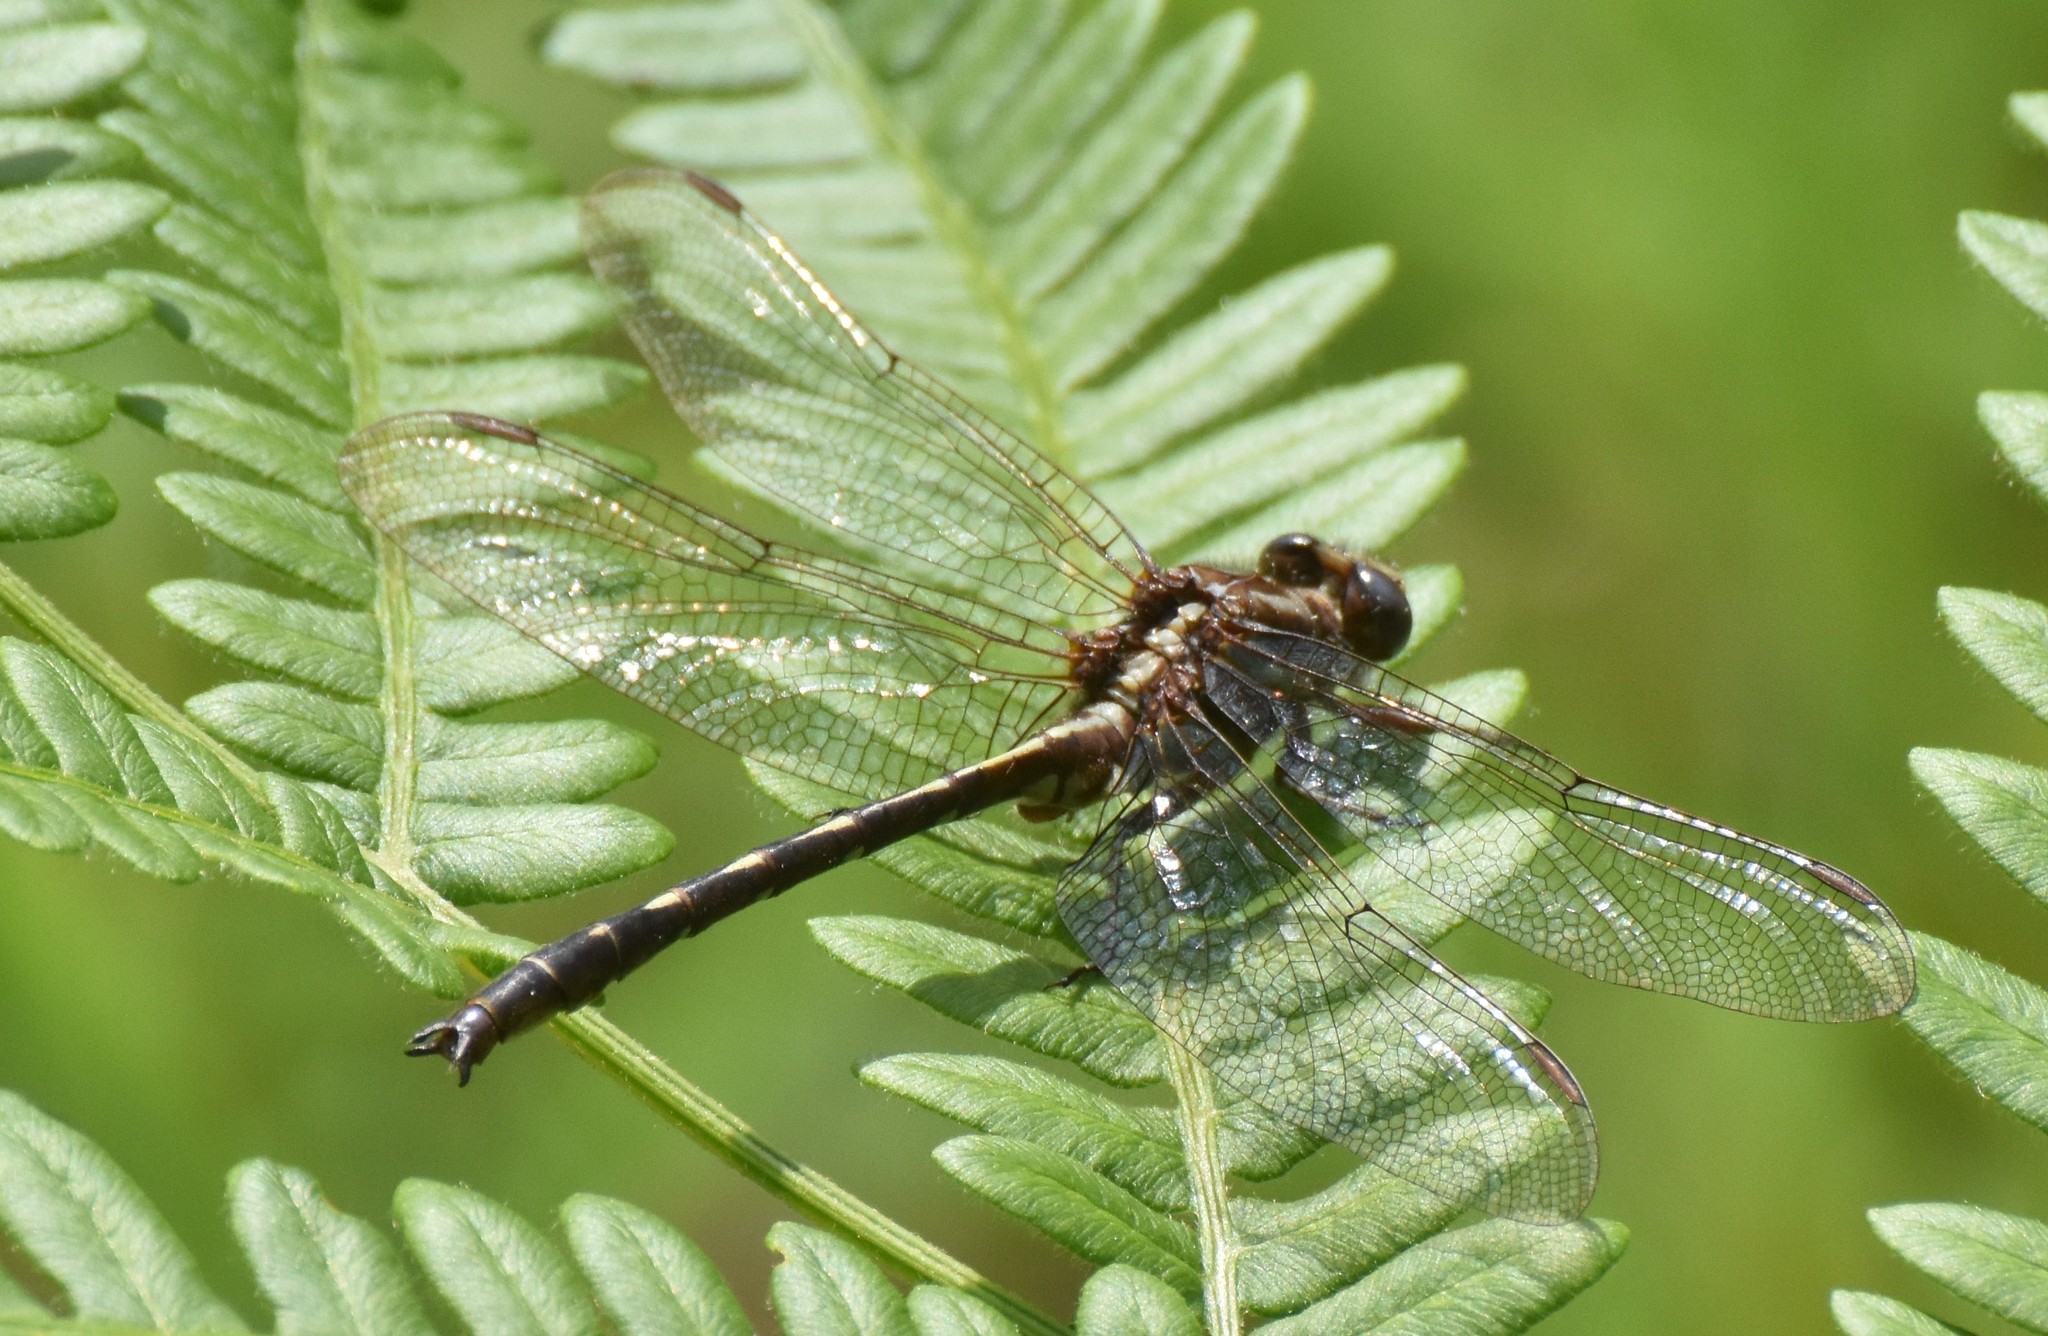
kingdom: Animalia
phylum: Arthropoda
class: Insecta
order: Odonata
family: Gomphidae
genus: Phanogomphus
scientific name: Phanogomphus lividus
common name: Ashy clubtail
